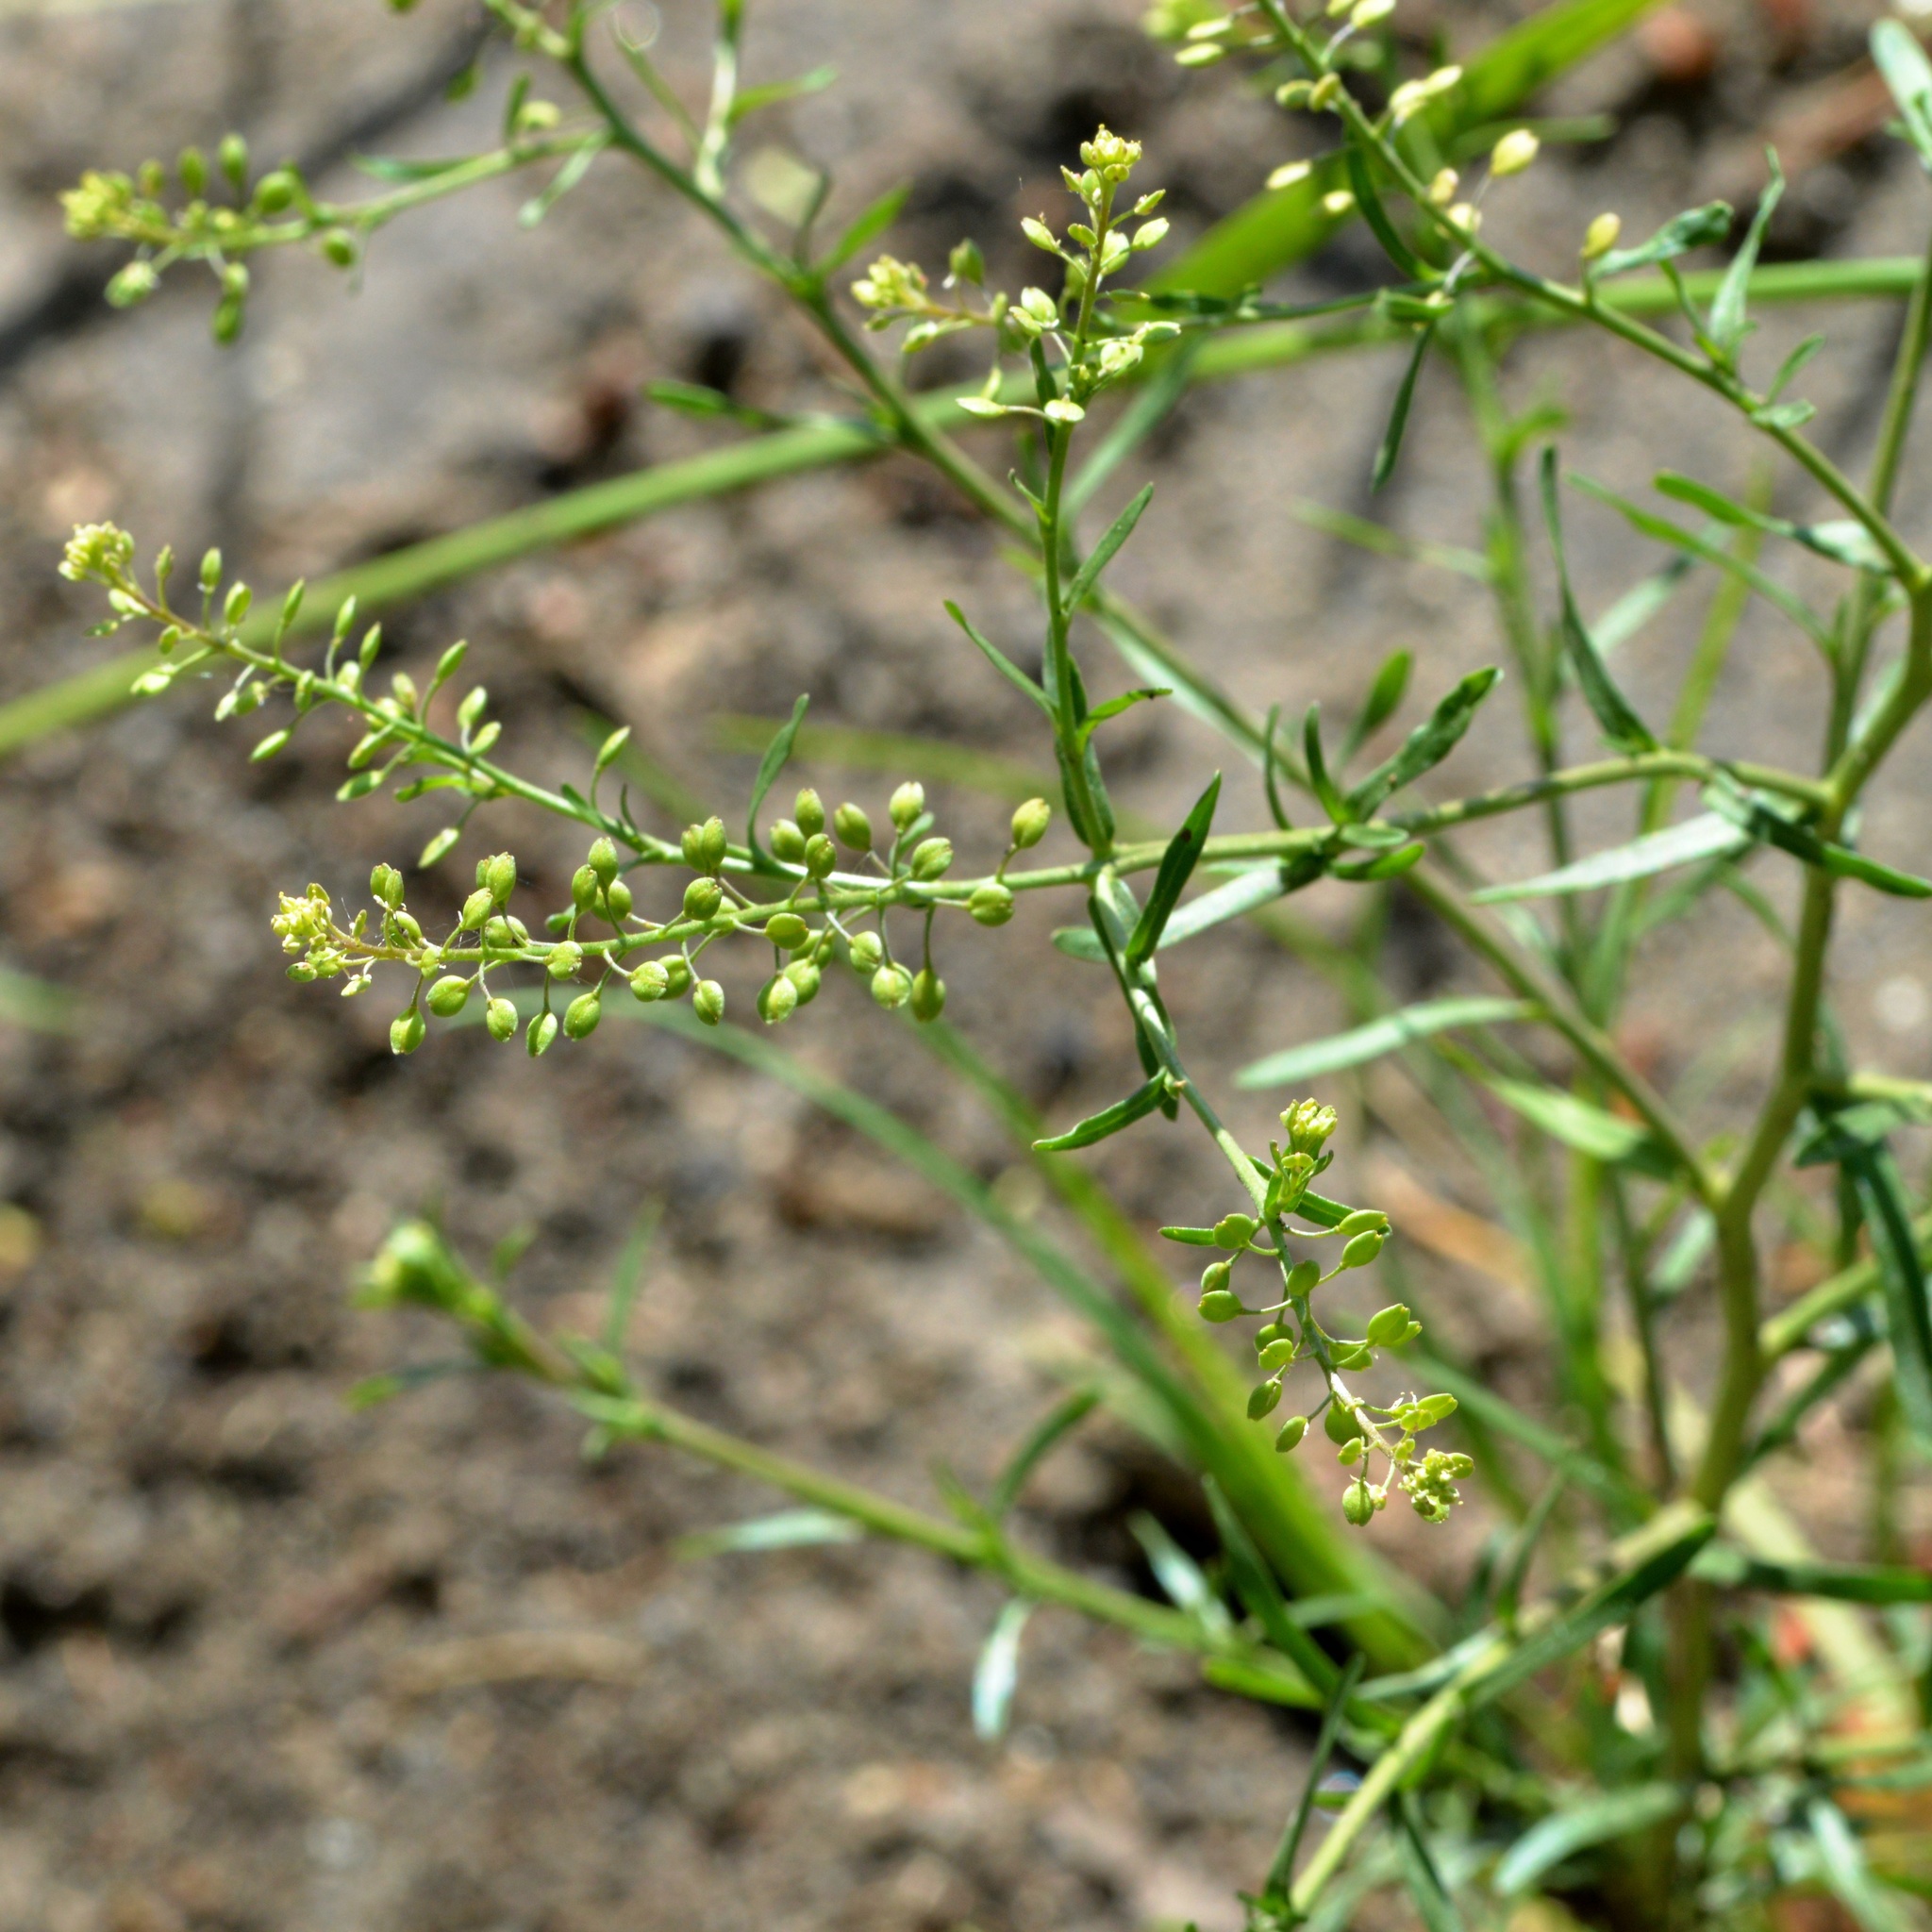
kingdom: Plantae
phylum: Tracheophyta
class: Magnoliopsida
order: Brassicales
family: Brassicaceae
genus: Lepidium
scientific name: Lepidium ruderale
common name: Narrow-leaved pepperwort
